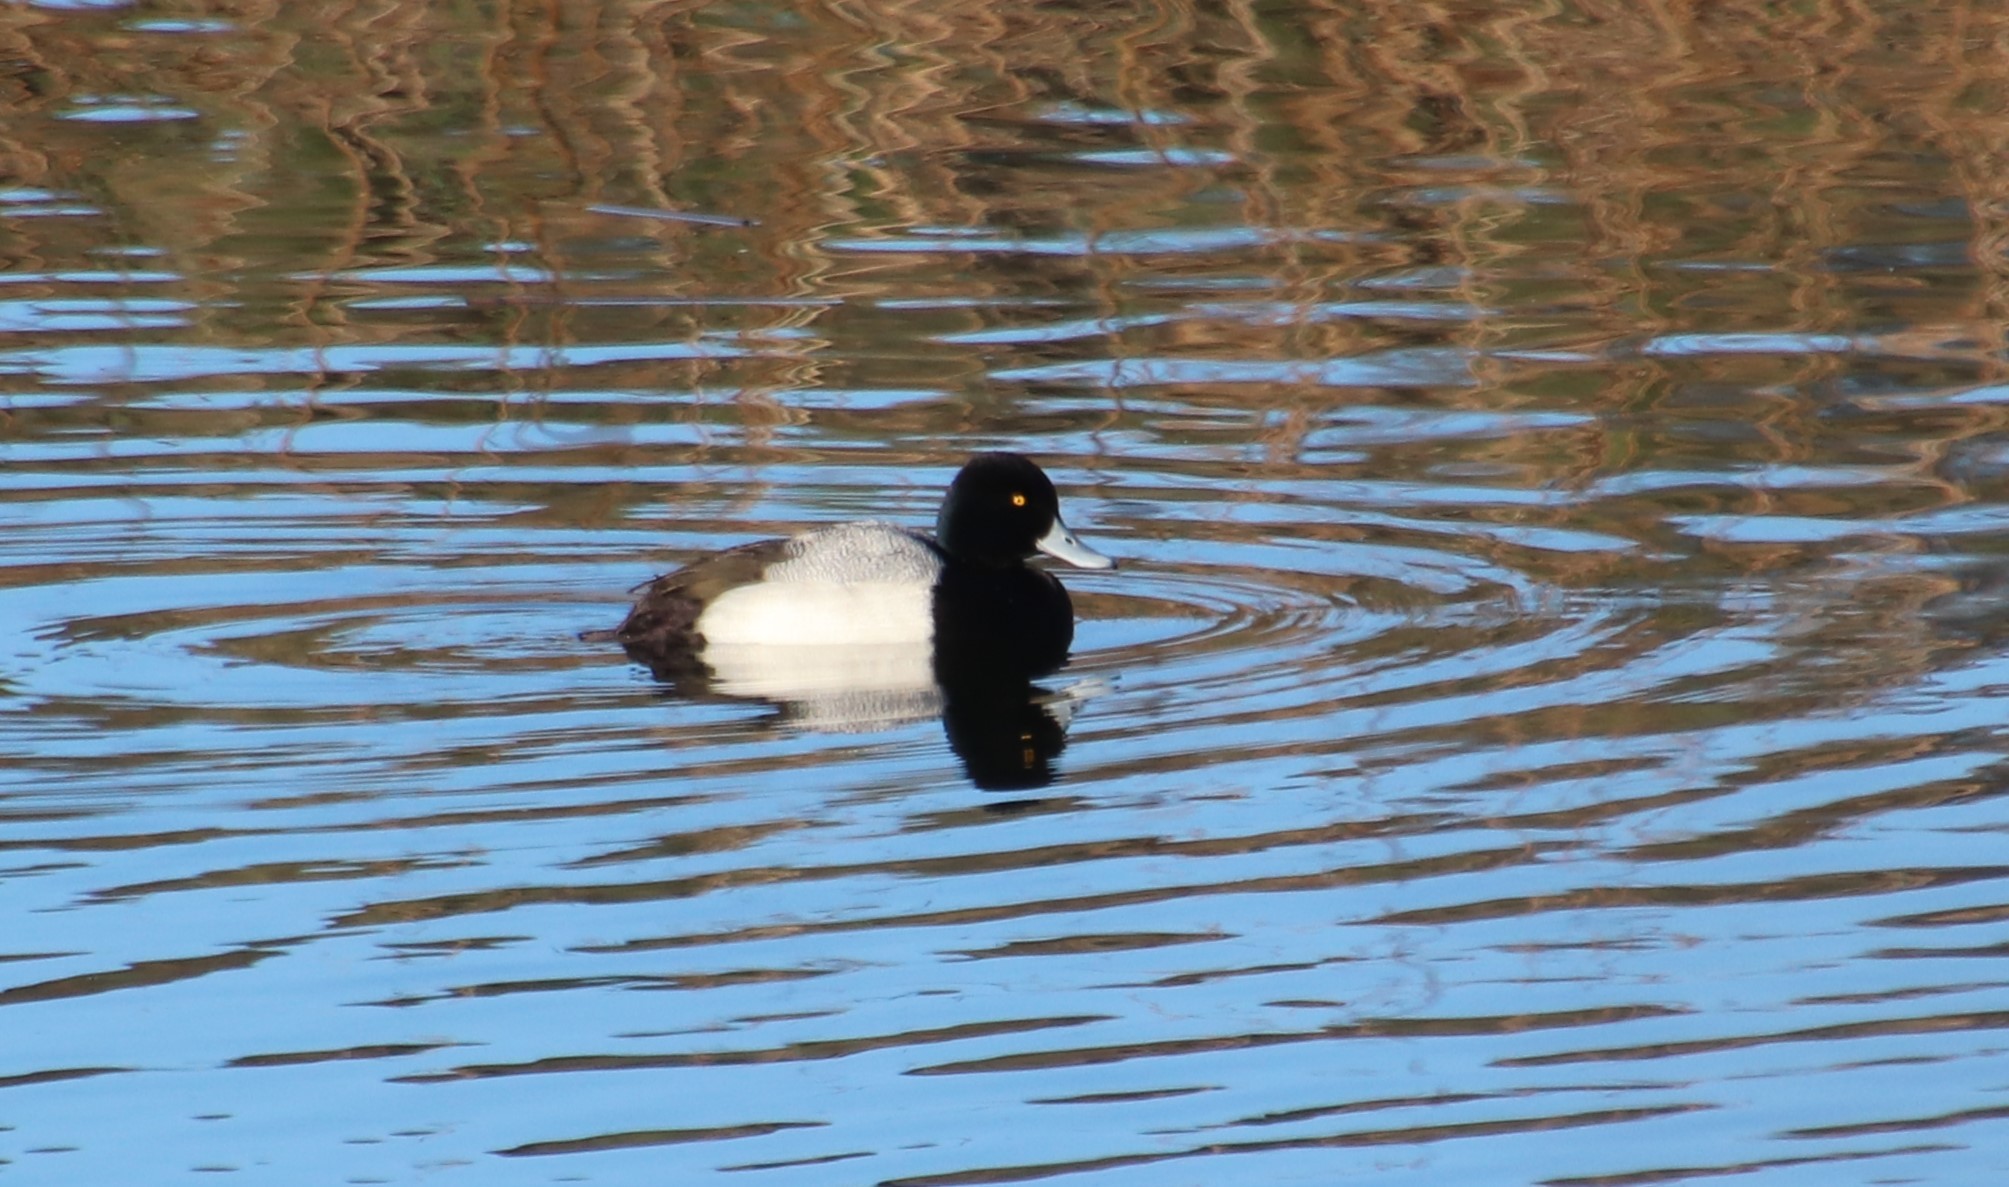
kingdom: Animalia
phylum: Chordata
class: Aves
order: Anseriformes
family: Anatidae
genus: Aythya
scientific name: Aythya affinis
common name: Lesser scaup
